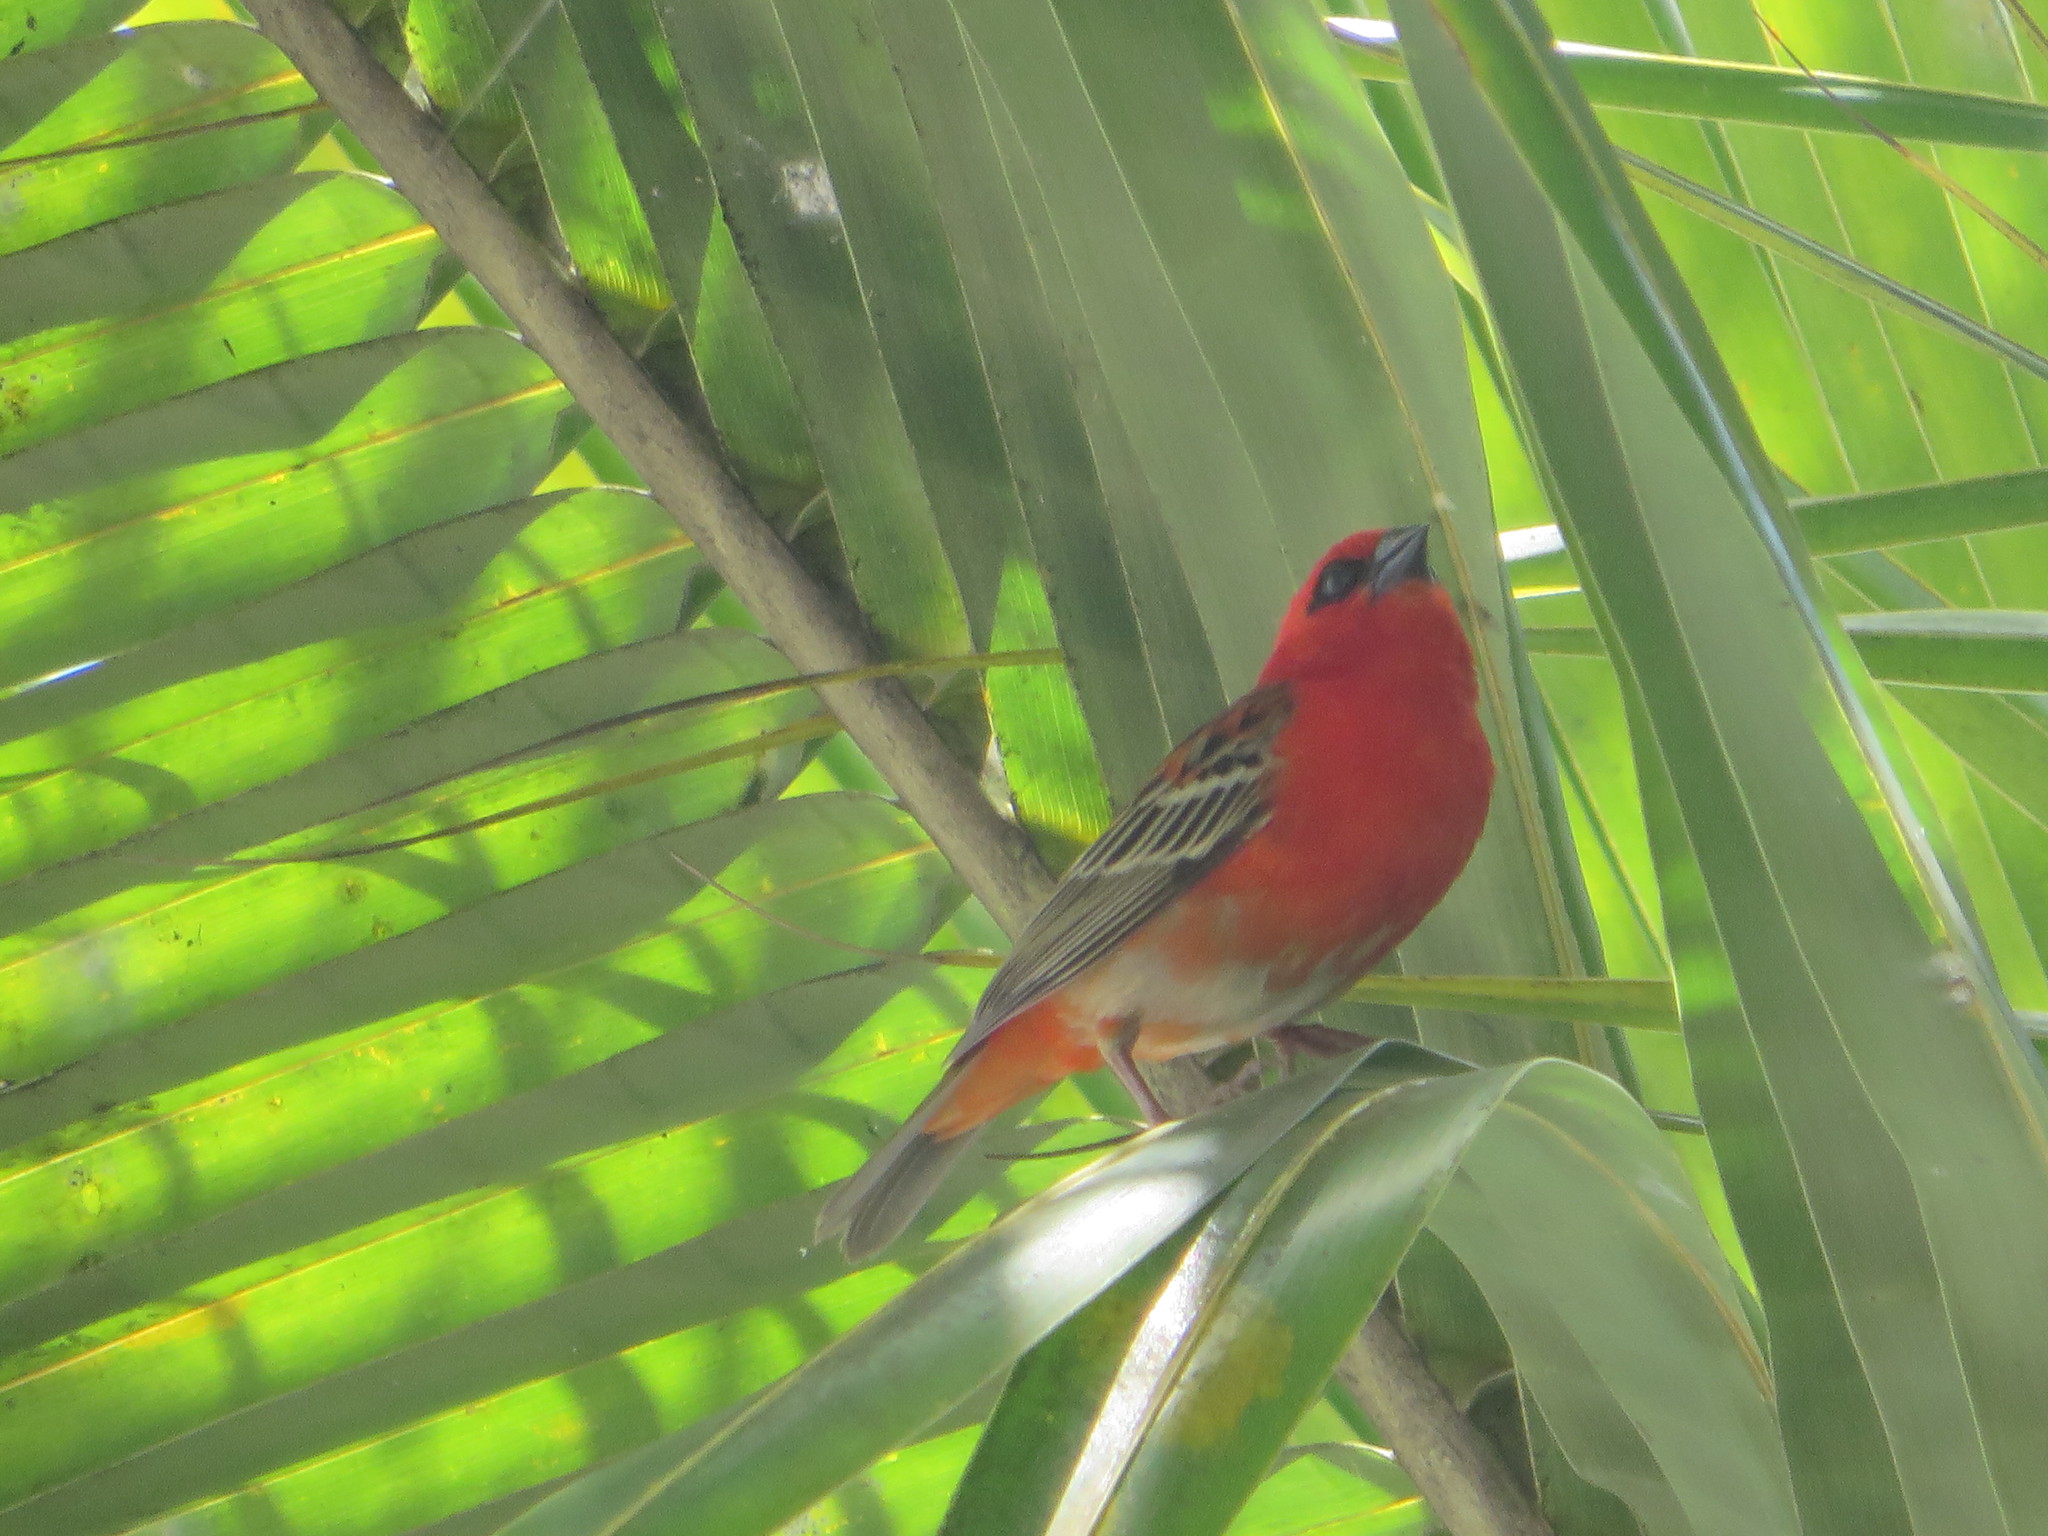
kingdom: Animalia
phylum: Chordata
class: Aves
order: Passeriformes
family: Ploceidae
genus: Foudia
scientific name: Foudia madagascariensis
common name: Red fody
